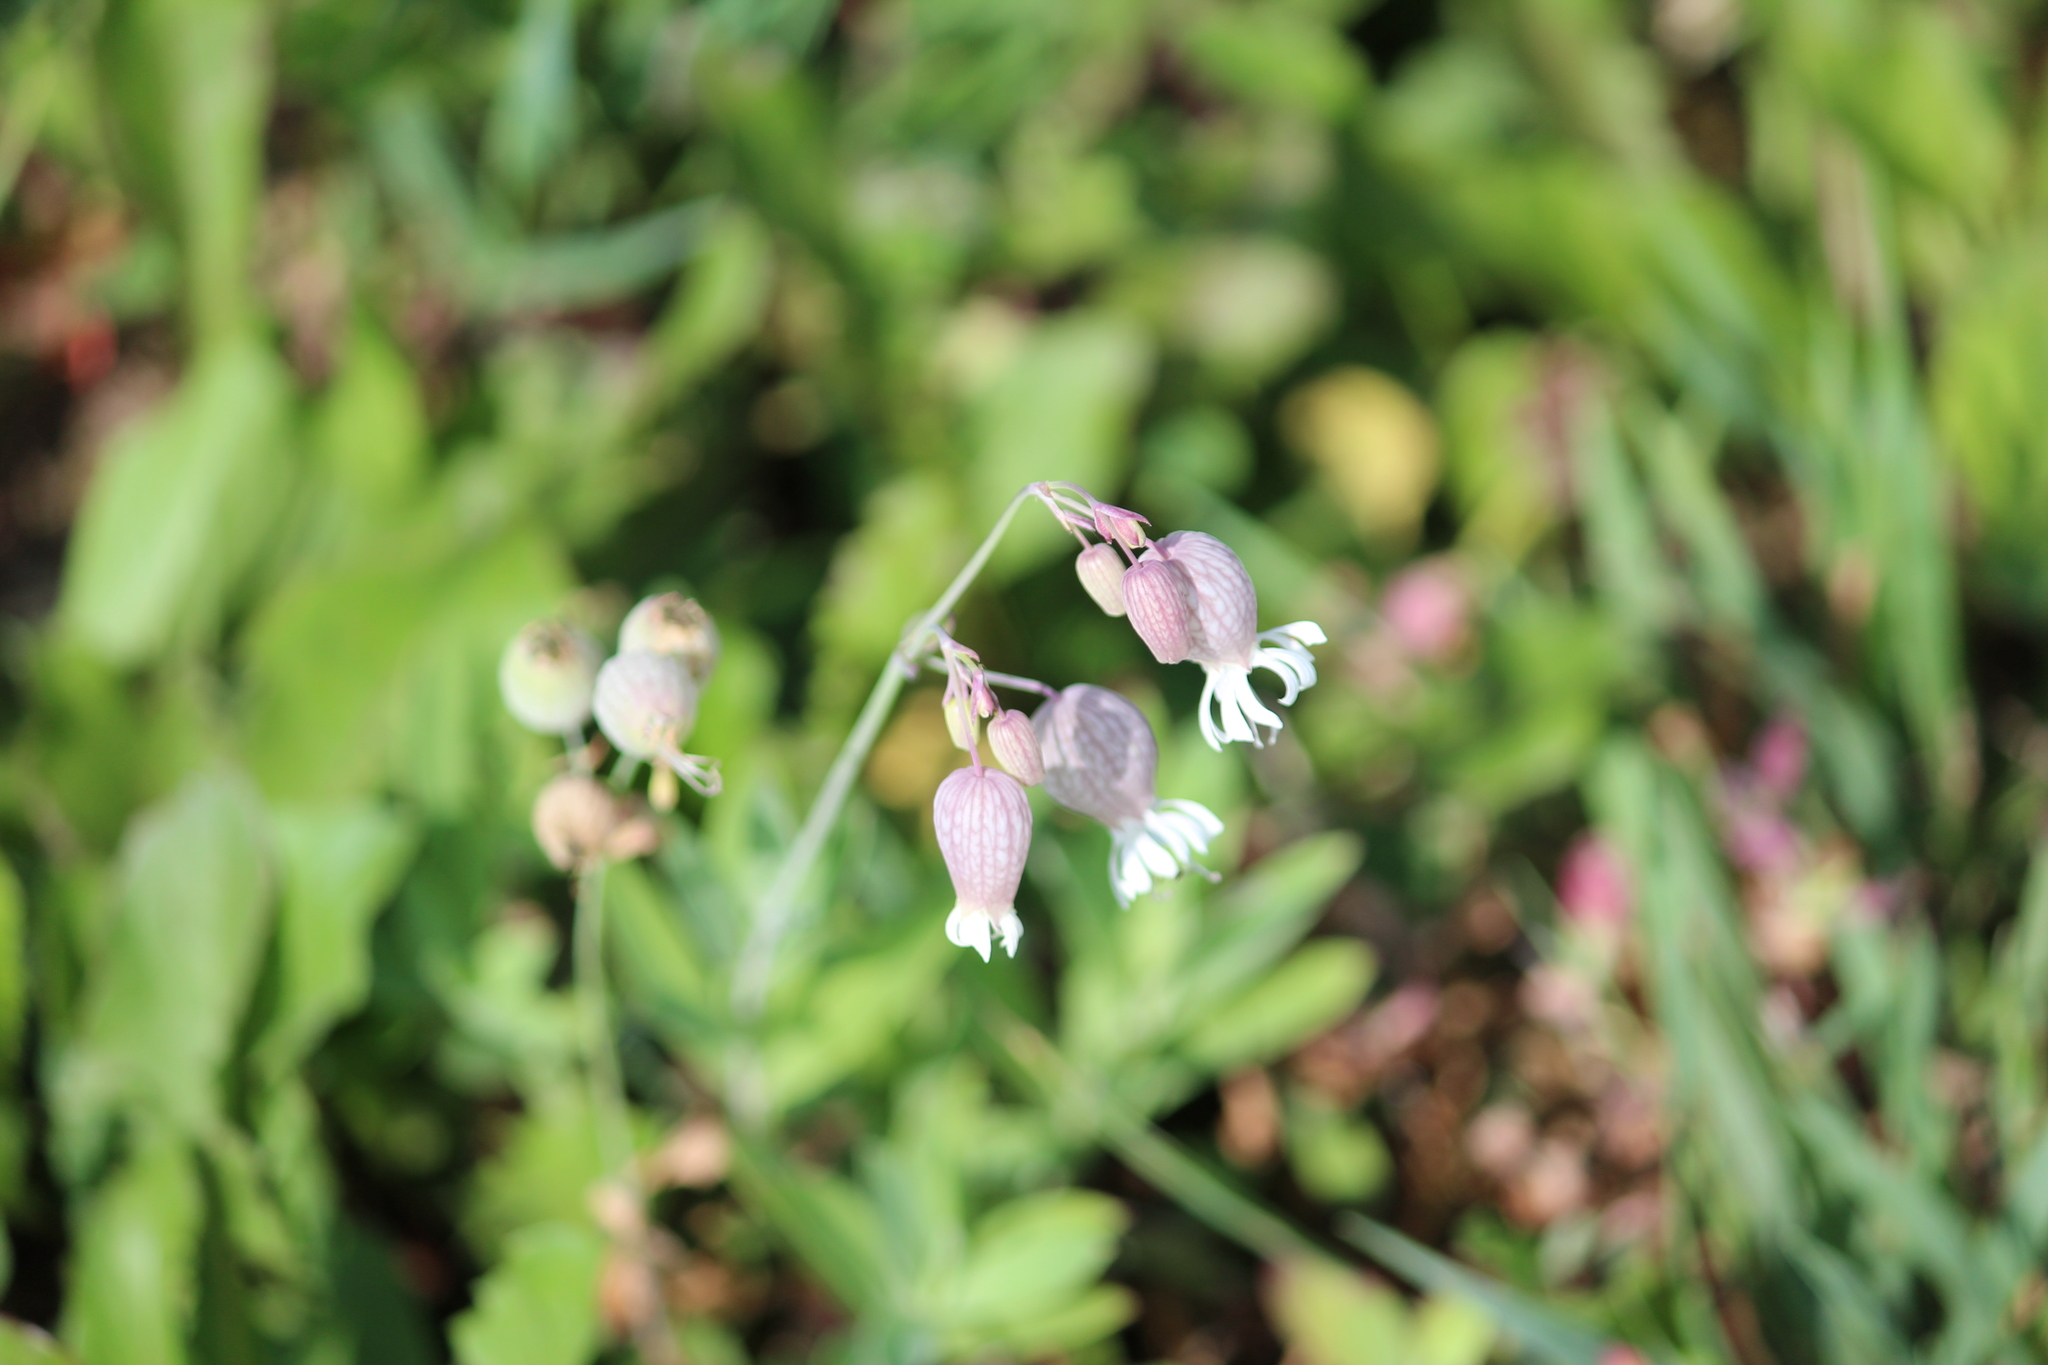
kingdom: Plantae
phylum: Tracheophyta
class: Magnoliopsida
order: Caryophyllales
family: Caryophyllaceae
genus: Silene
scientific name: Silene vulgaris
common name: Bladder campion
